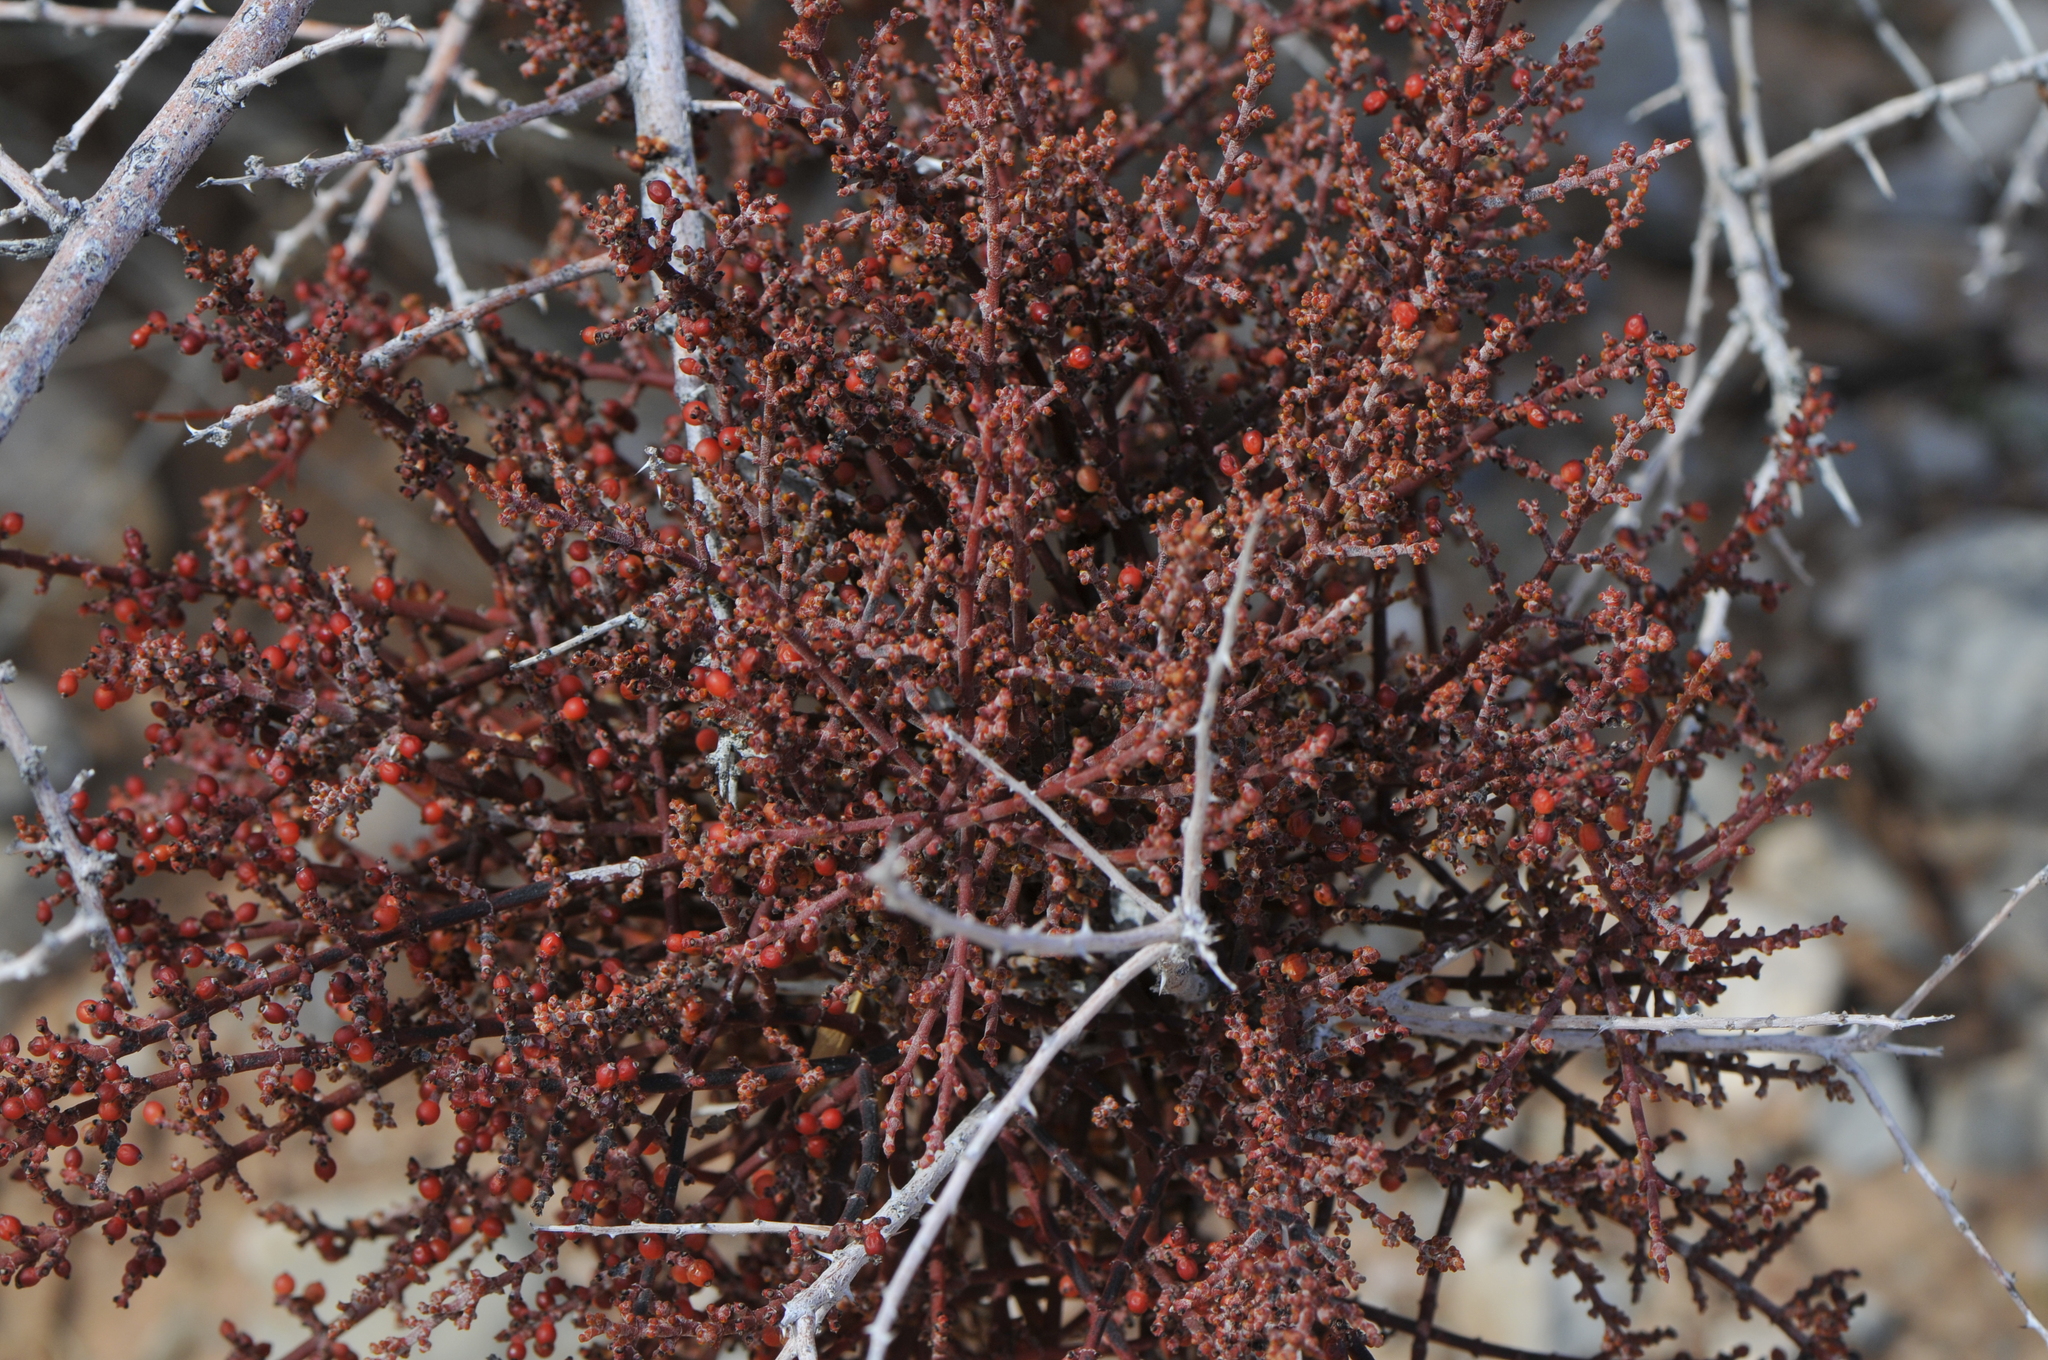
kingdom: Plantae
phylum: Tracheophyta
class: Magnoliopsida
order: Santalales
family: Viscaceae
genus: Phoradendron
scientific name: Phoradendron californicum
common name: Acacia mistletoe
